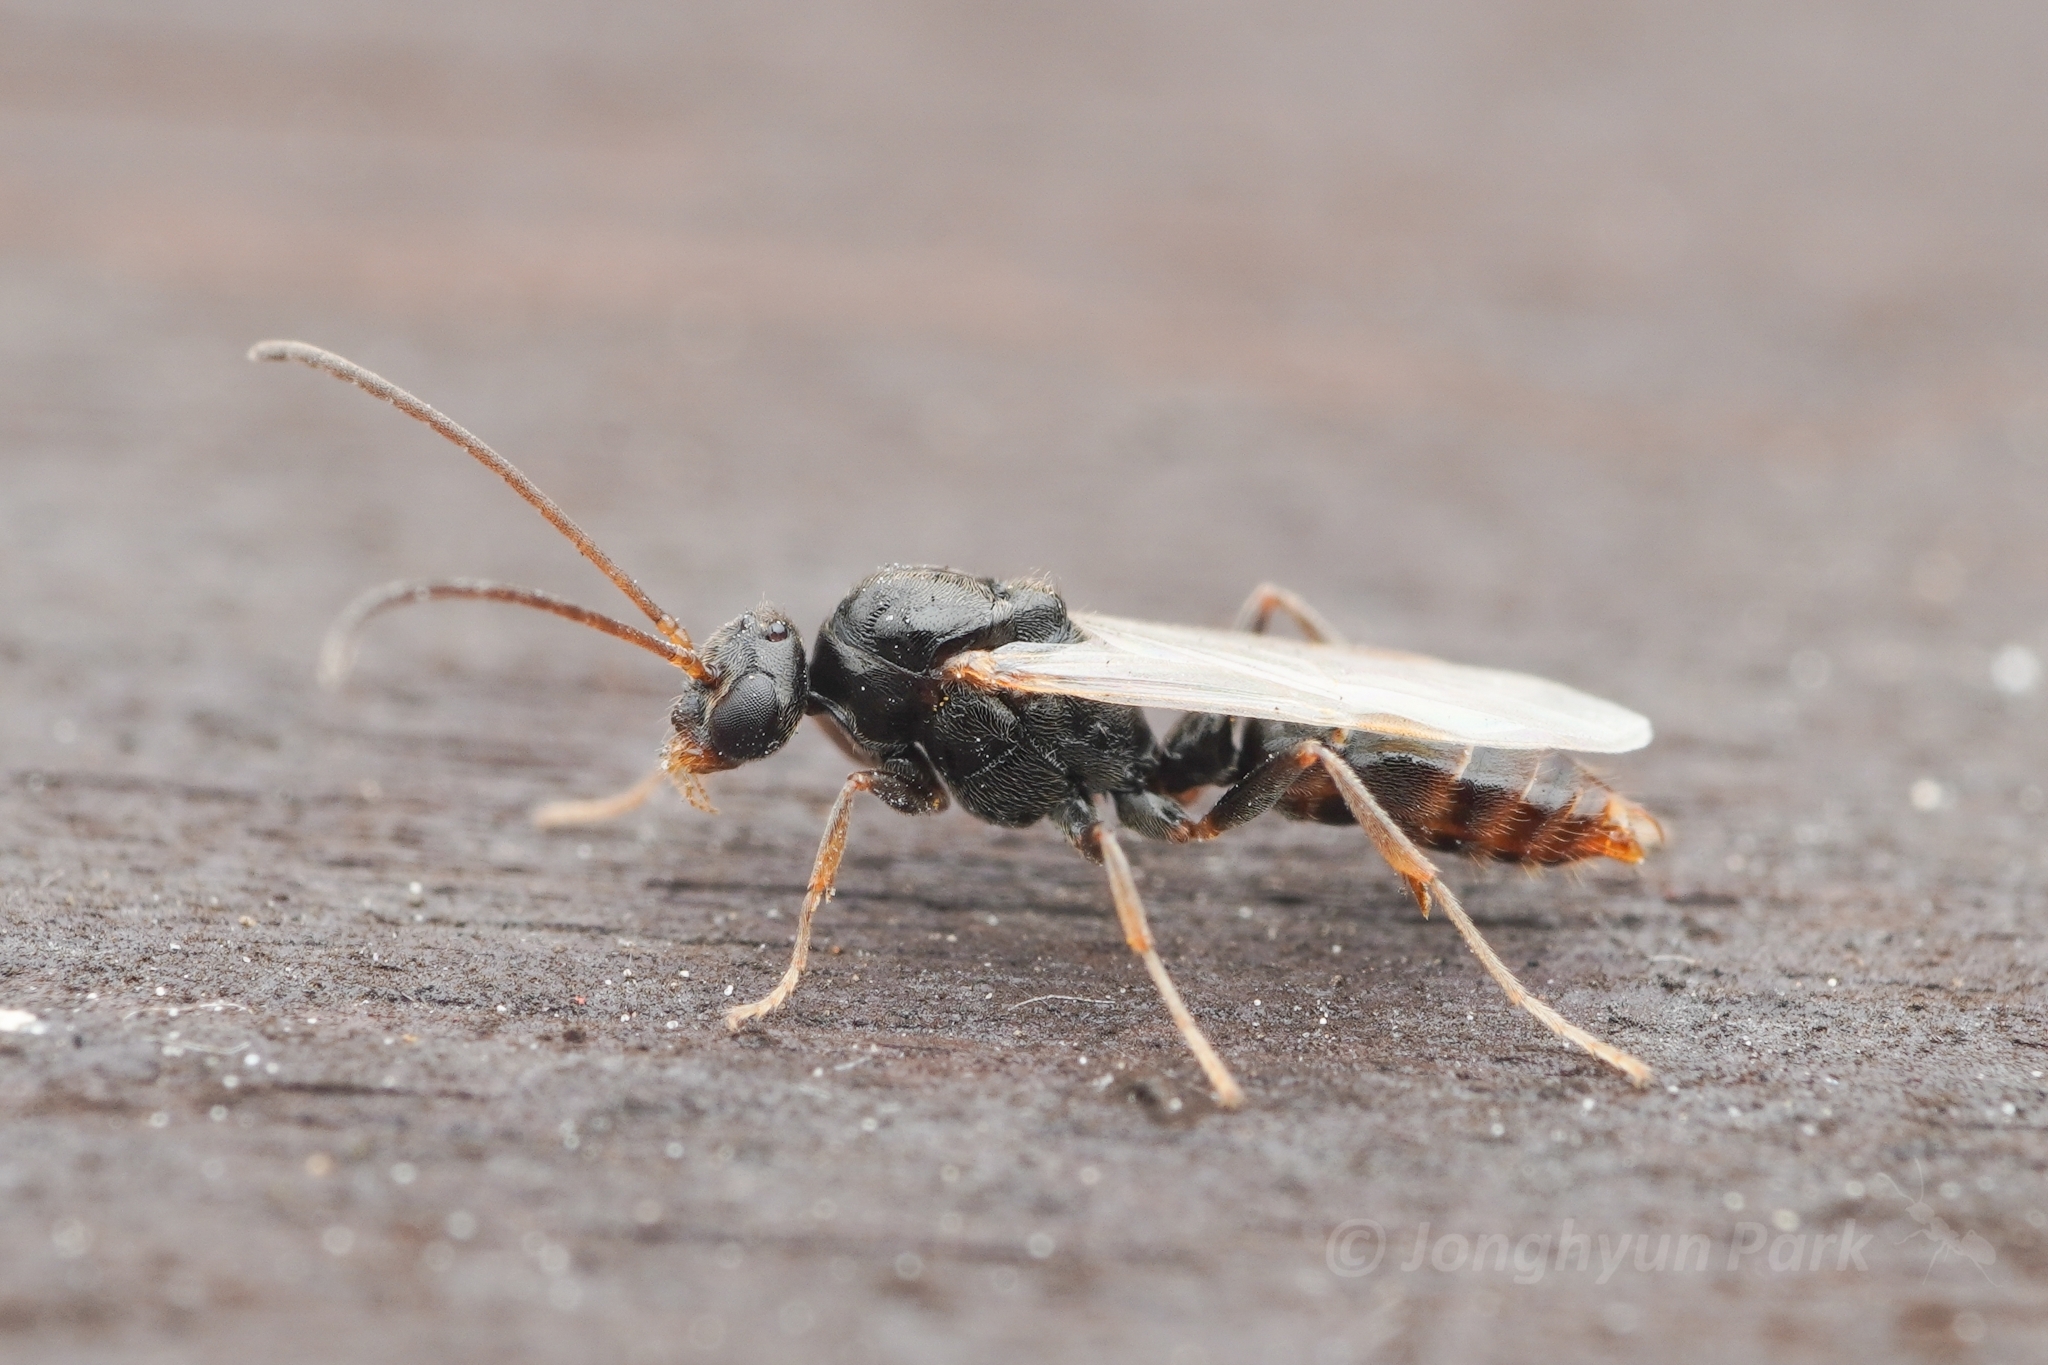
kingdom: Animalia
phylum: Arthropoda
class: Insecta
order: Hymenoptera
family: Formicidae
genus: Pachycondyla
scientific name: Pachycondyla
